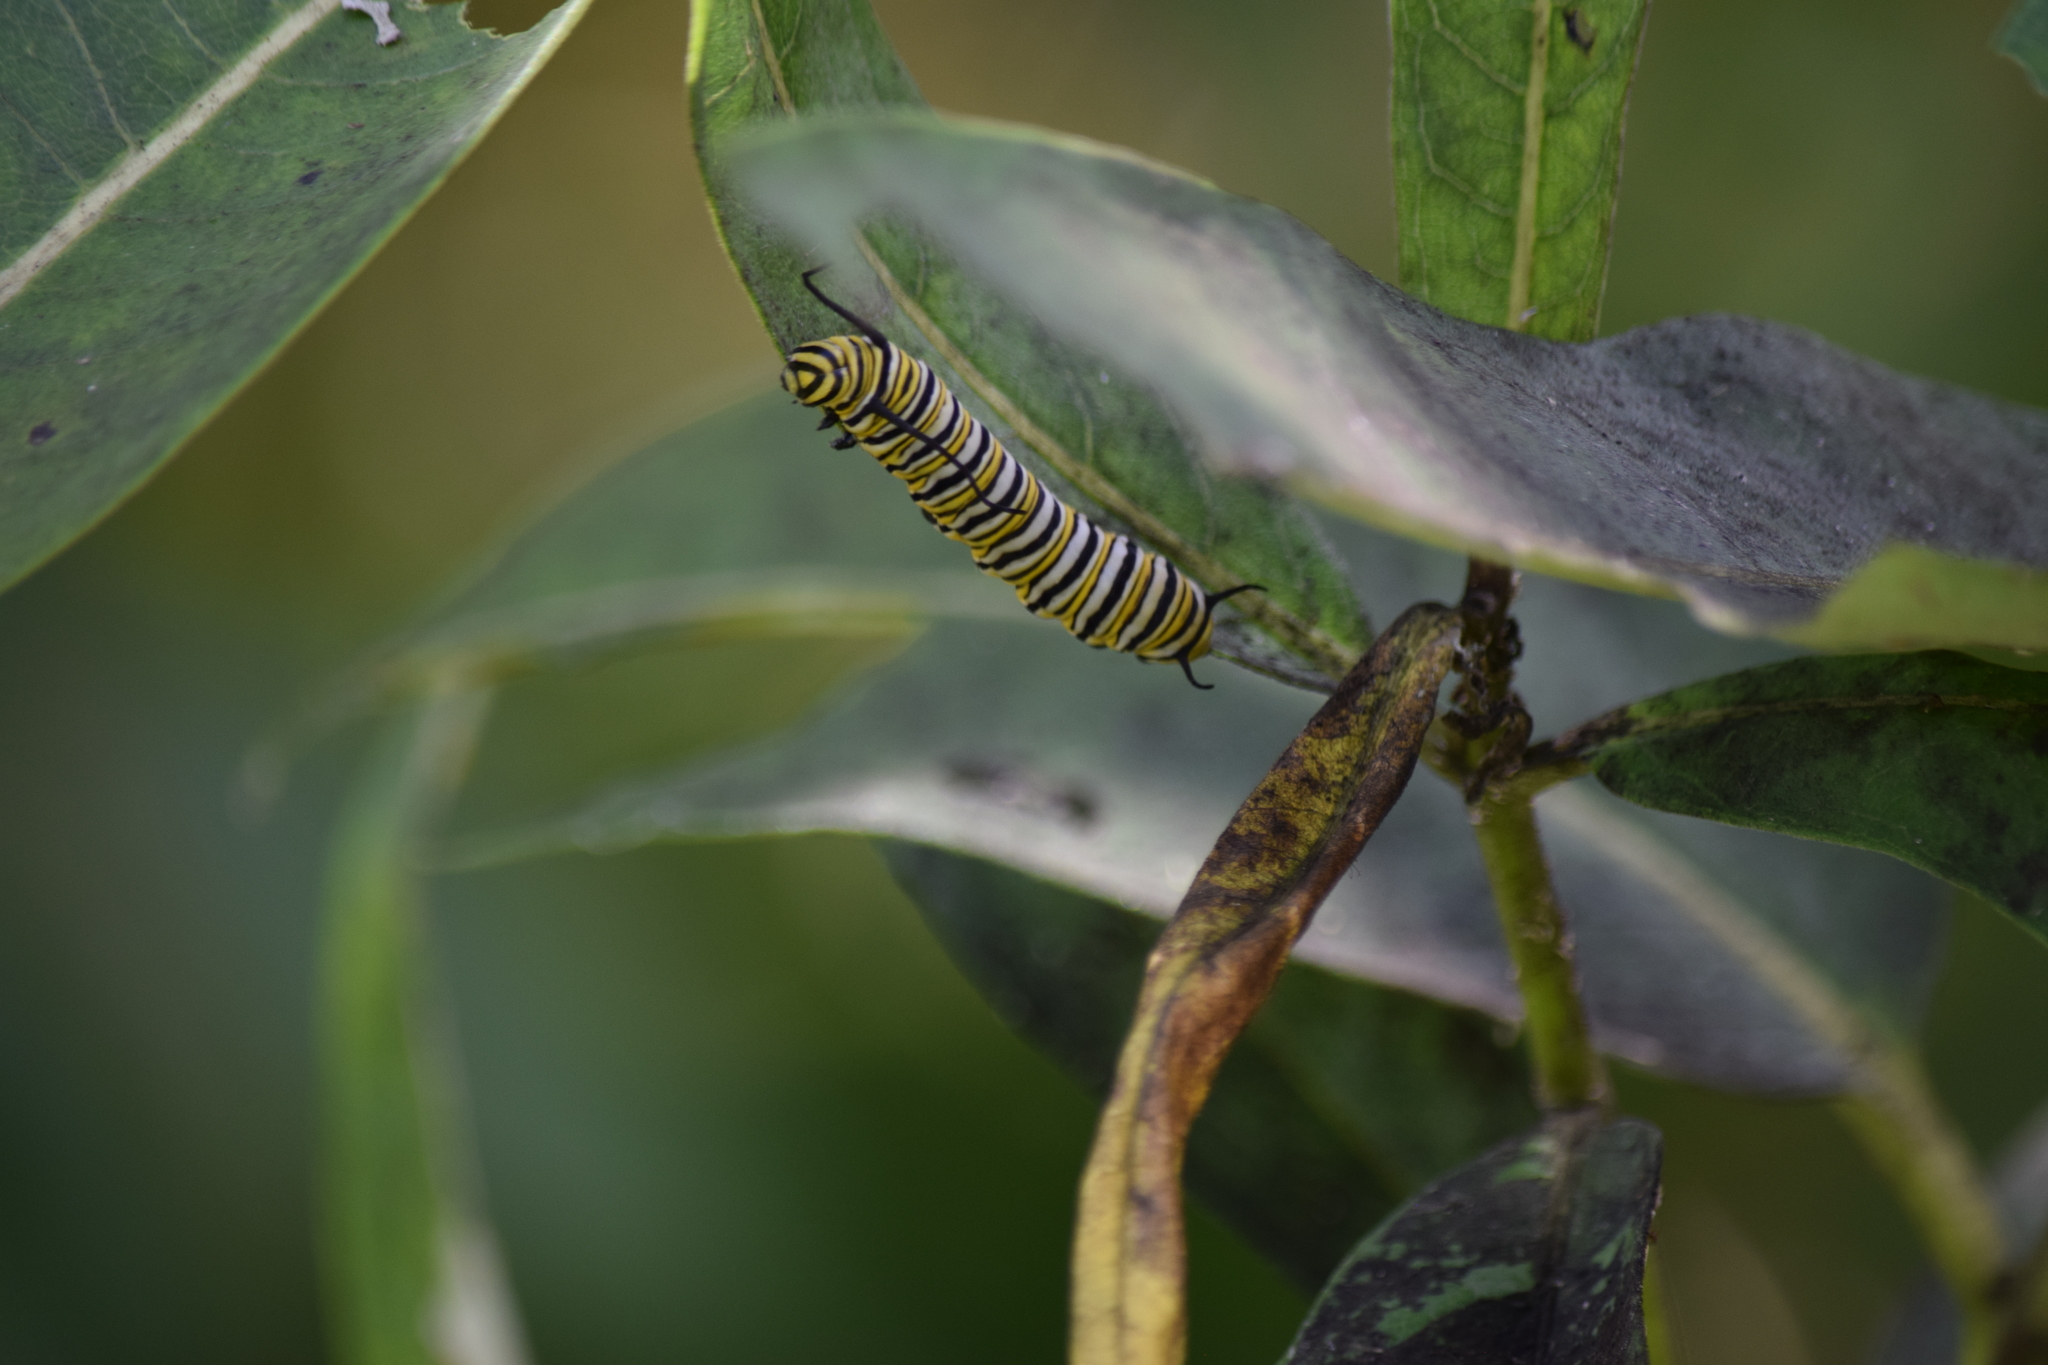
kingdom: Animalia
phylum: Arthropoda
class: Insecta
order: Lepidoptera
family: Nymphalidae
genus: Danaus
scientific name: Danaus plexippus
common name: Monarch
